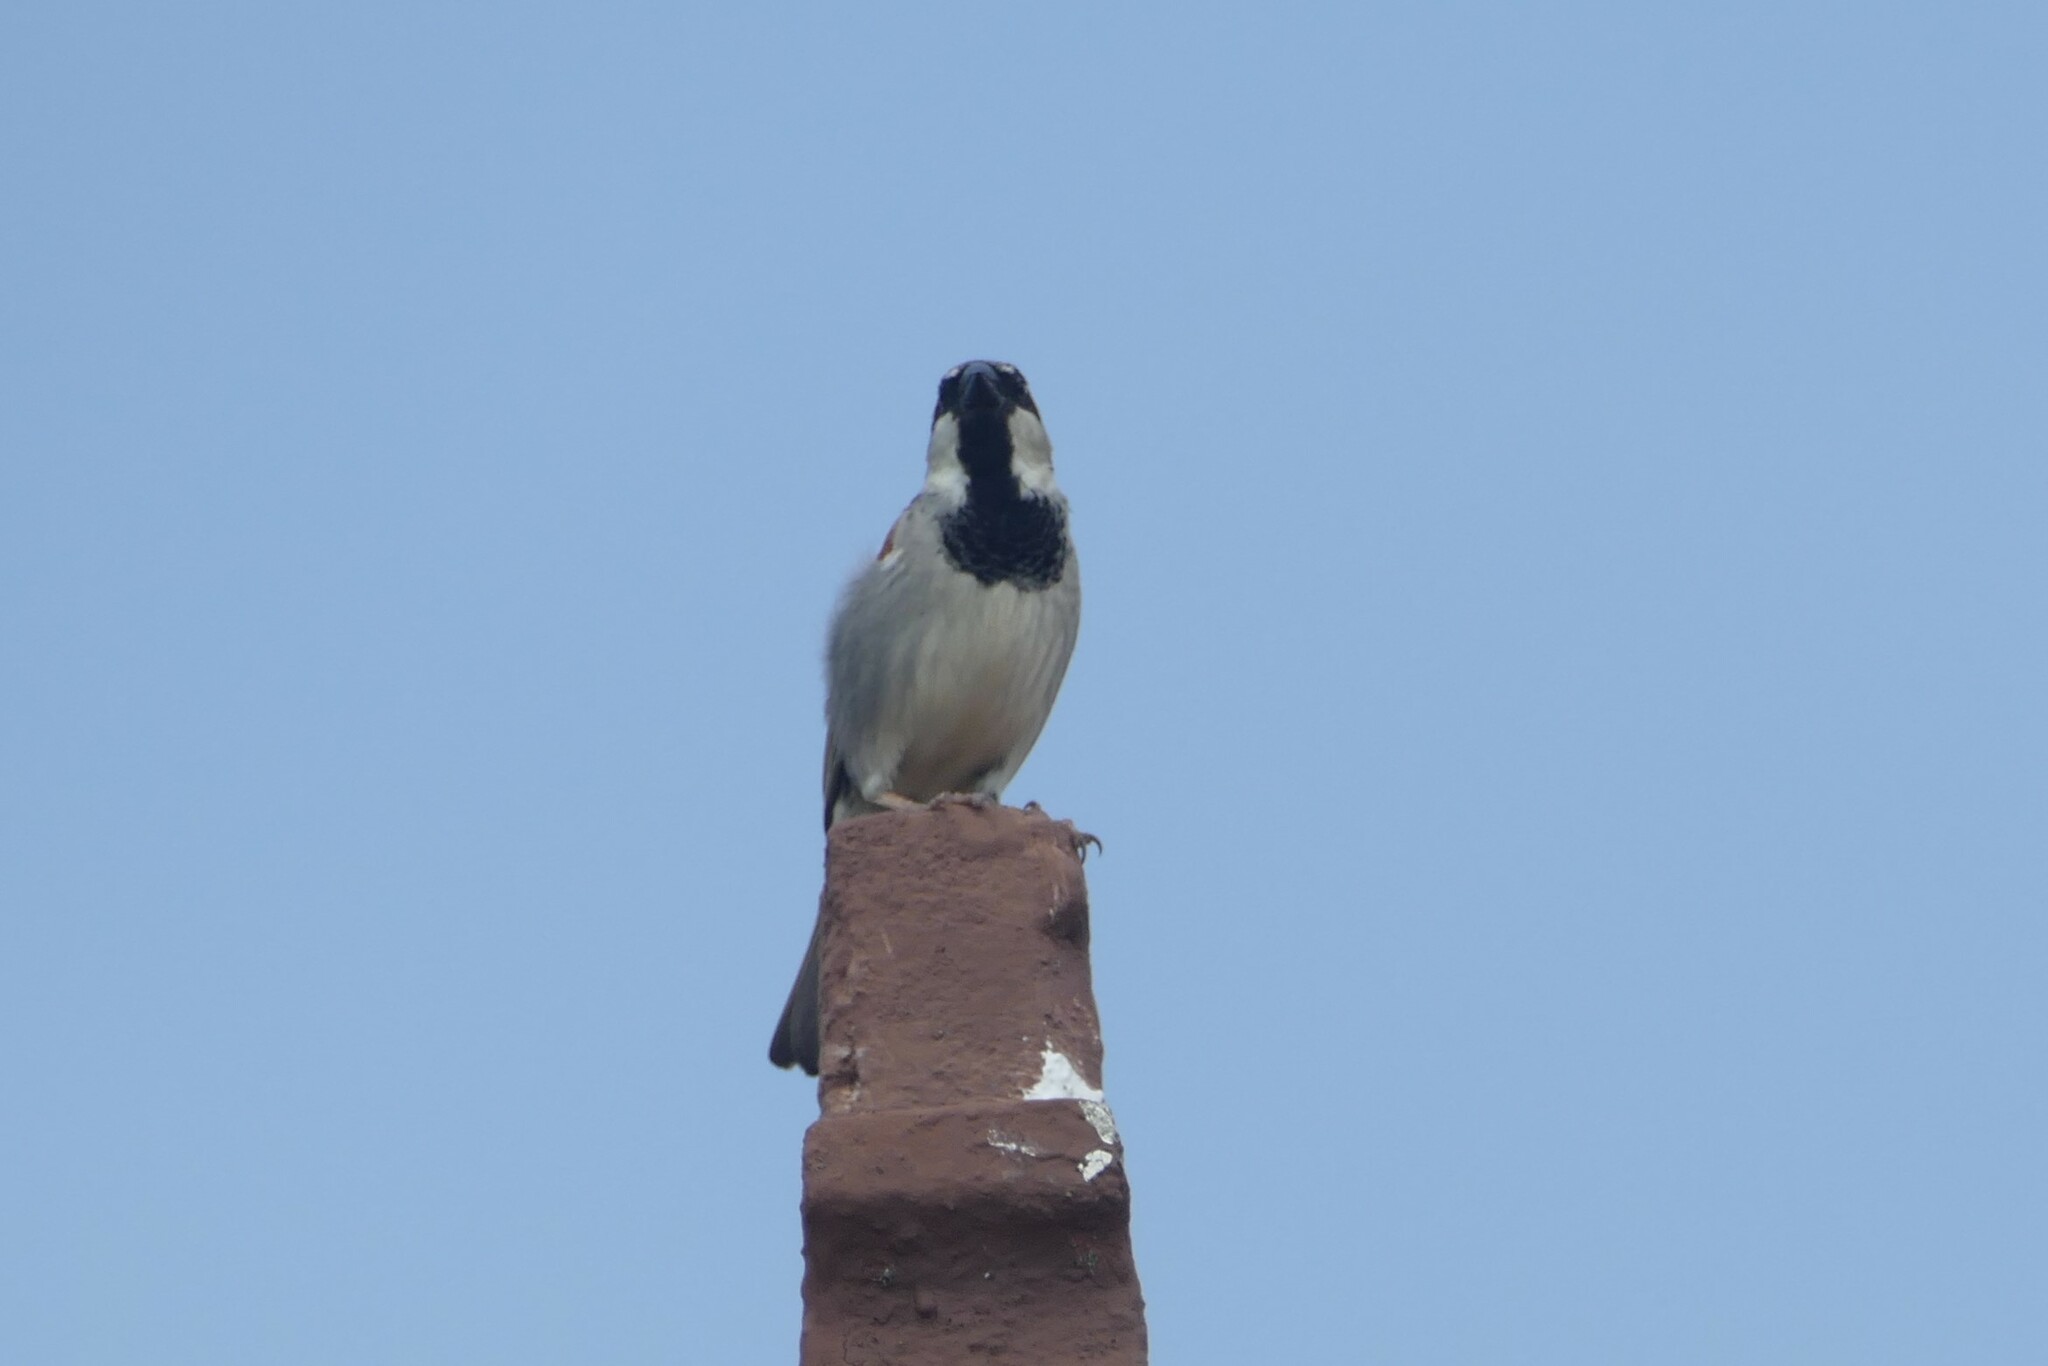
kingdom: Animalia
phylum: Chordata
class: Aves
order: Passeriformes
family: Passeridae
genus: Passer
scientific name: Passer domesticus
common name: House sparrow
